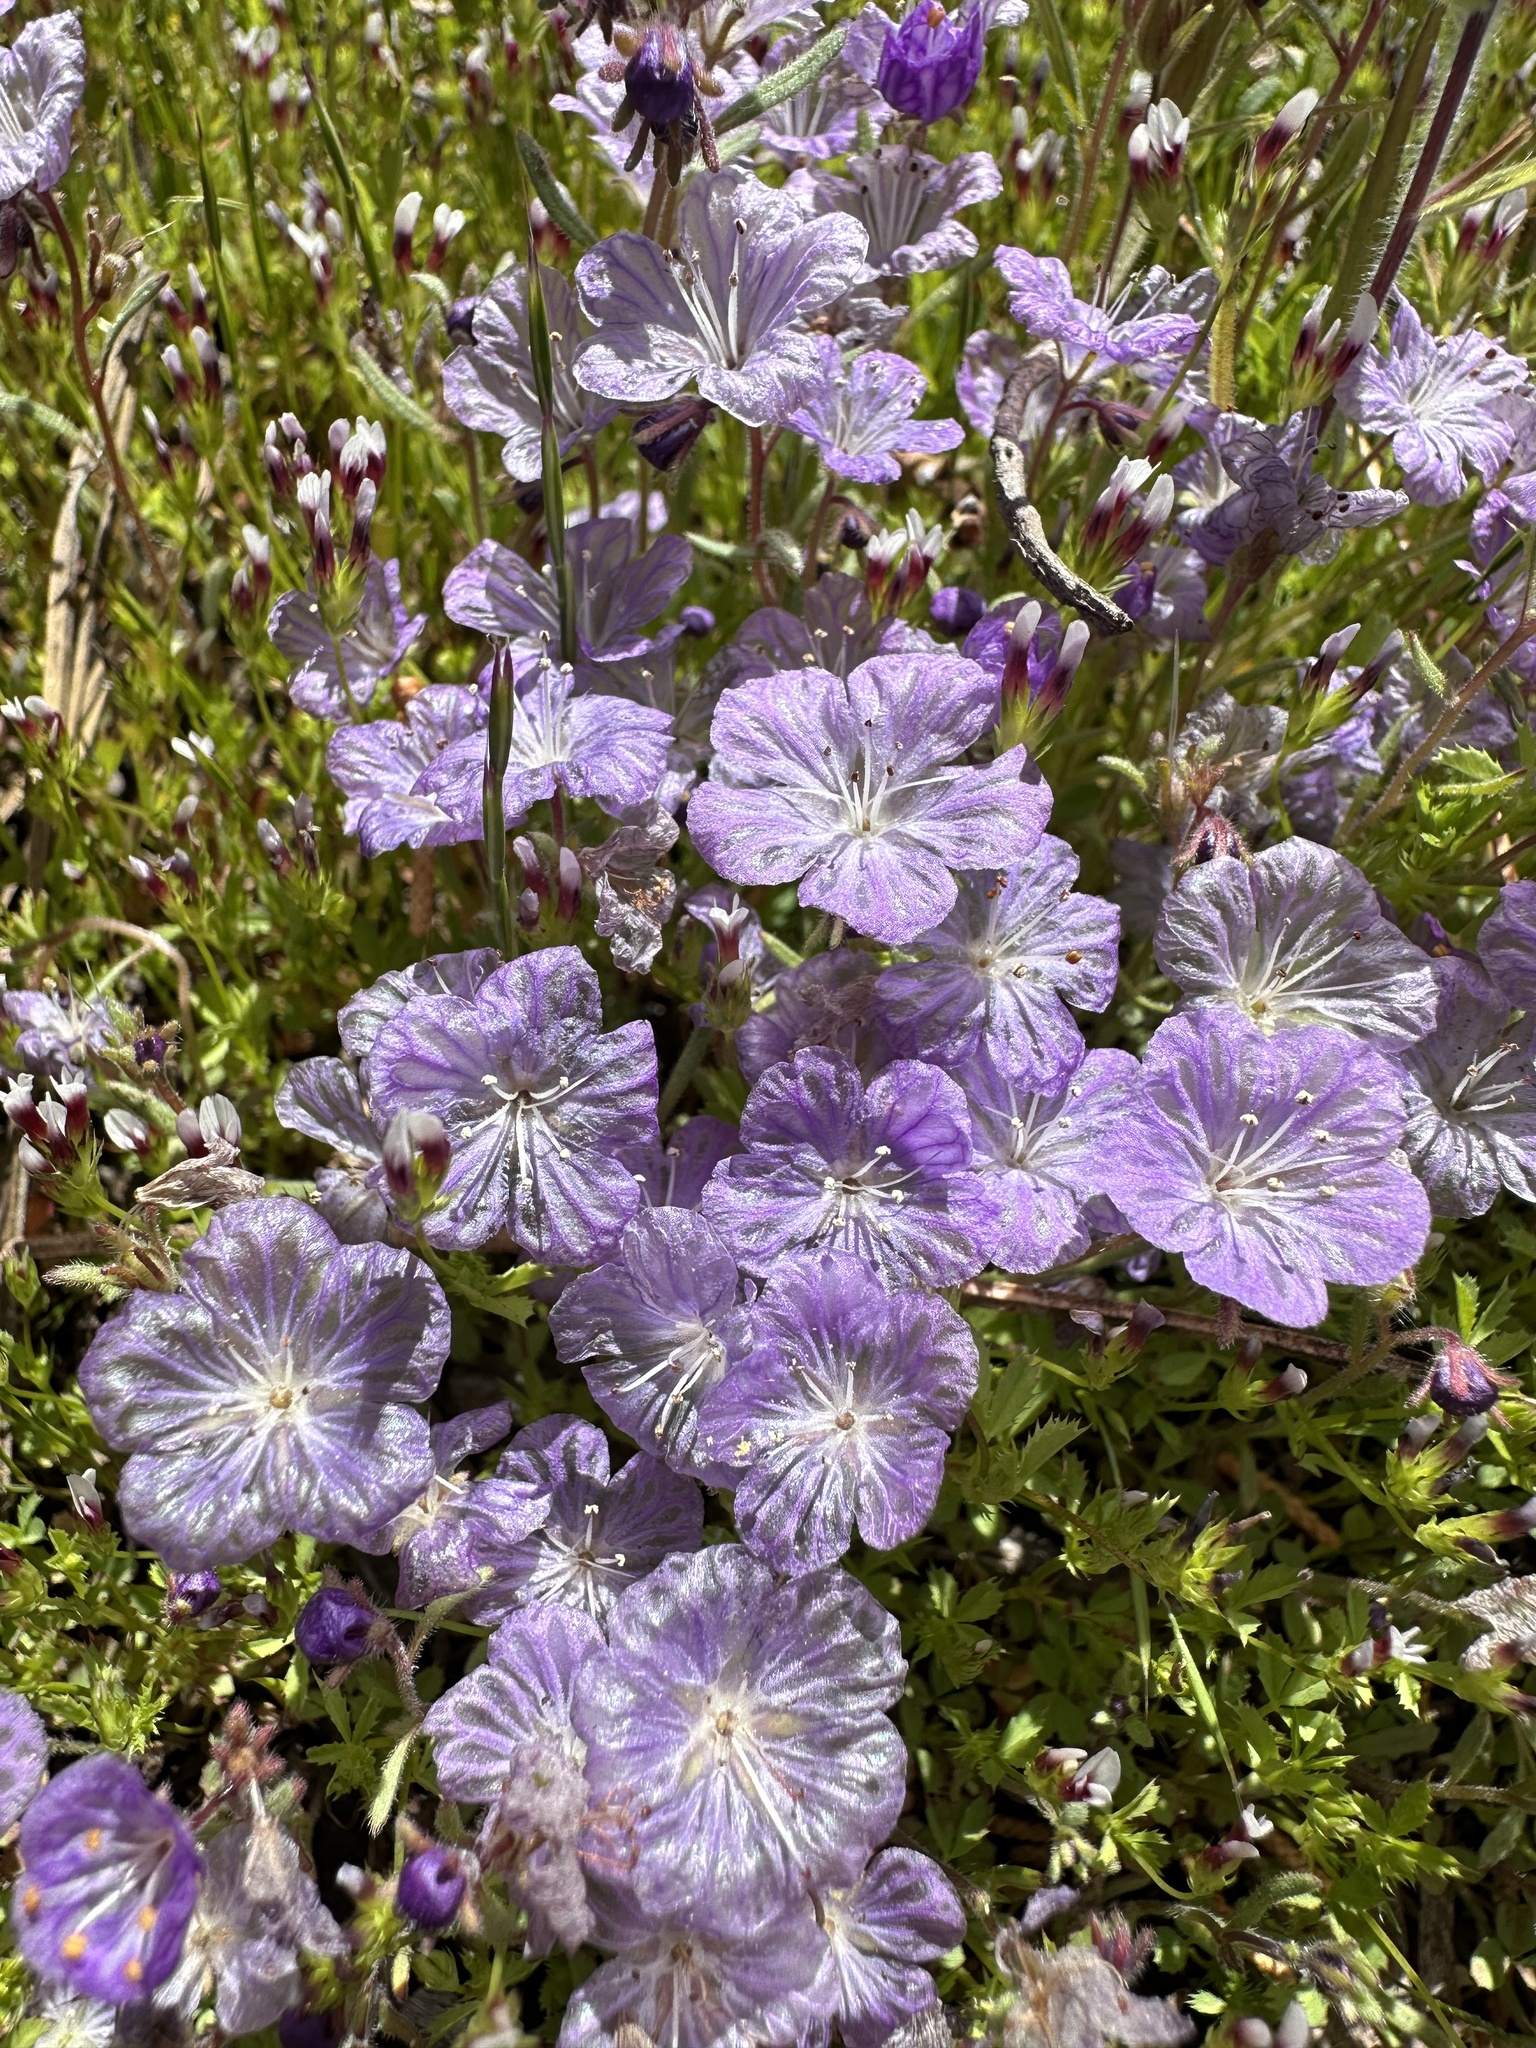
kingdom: Plantae
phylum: Tracheophyta
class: Magnoliopsida
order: Boraginales
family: Hydrophyllaceae
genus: Phacelia
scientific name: Phacelia exilis
